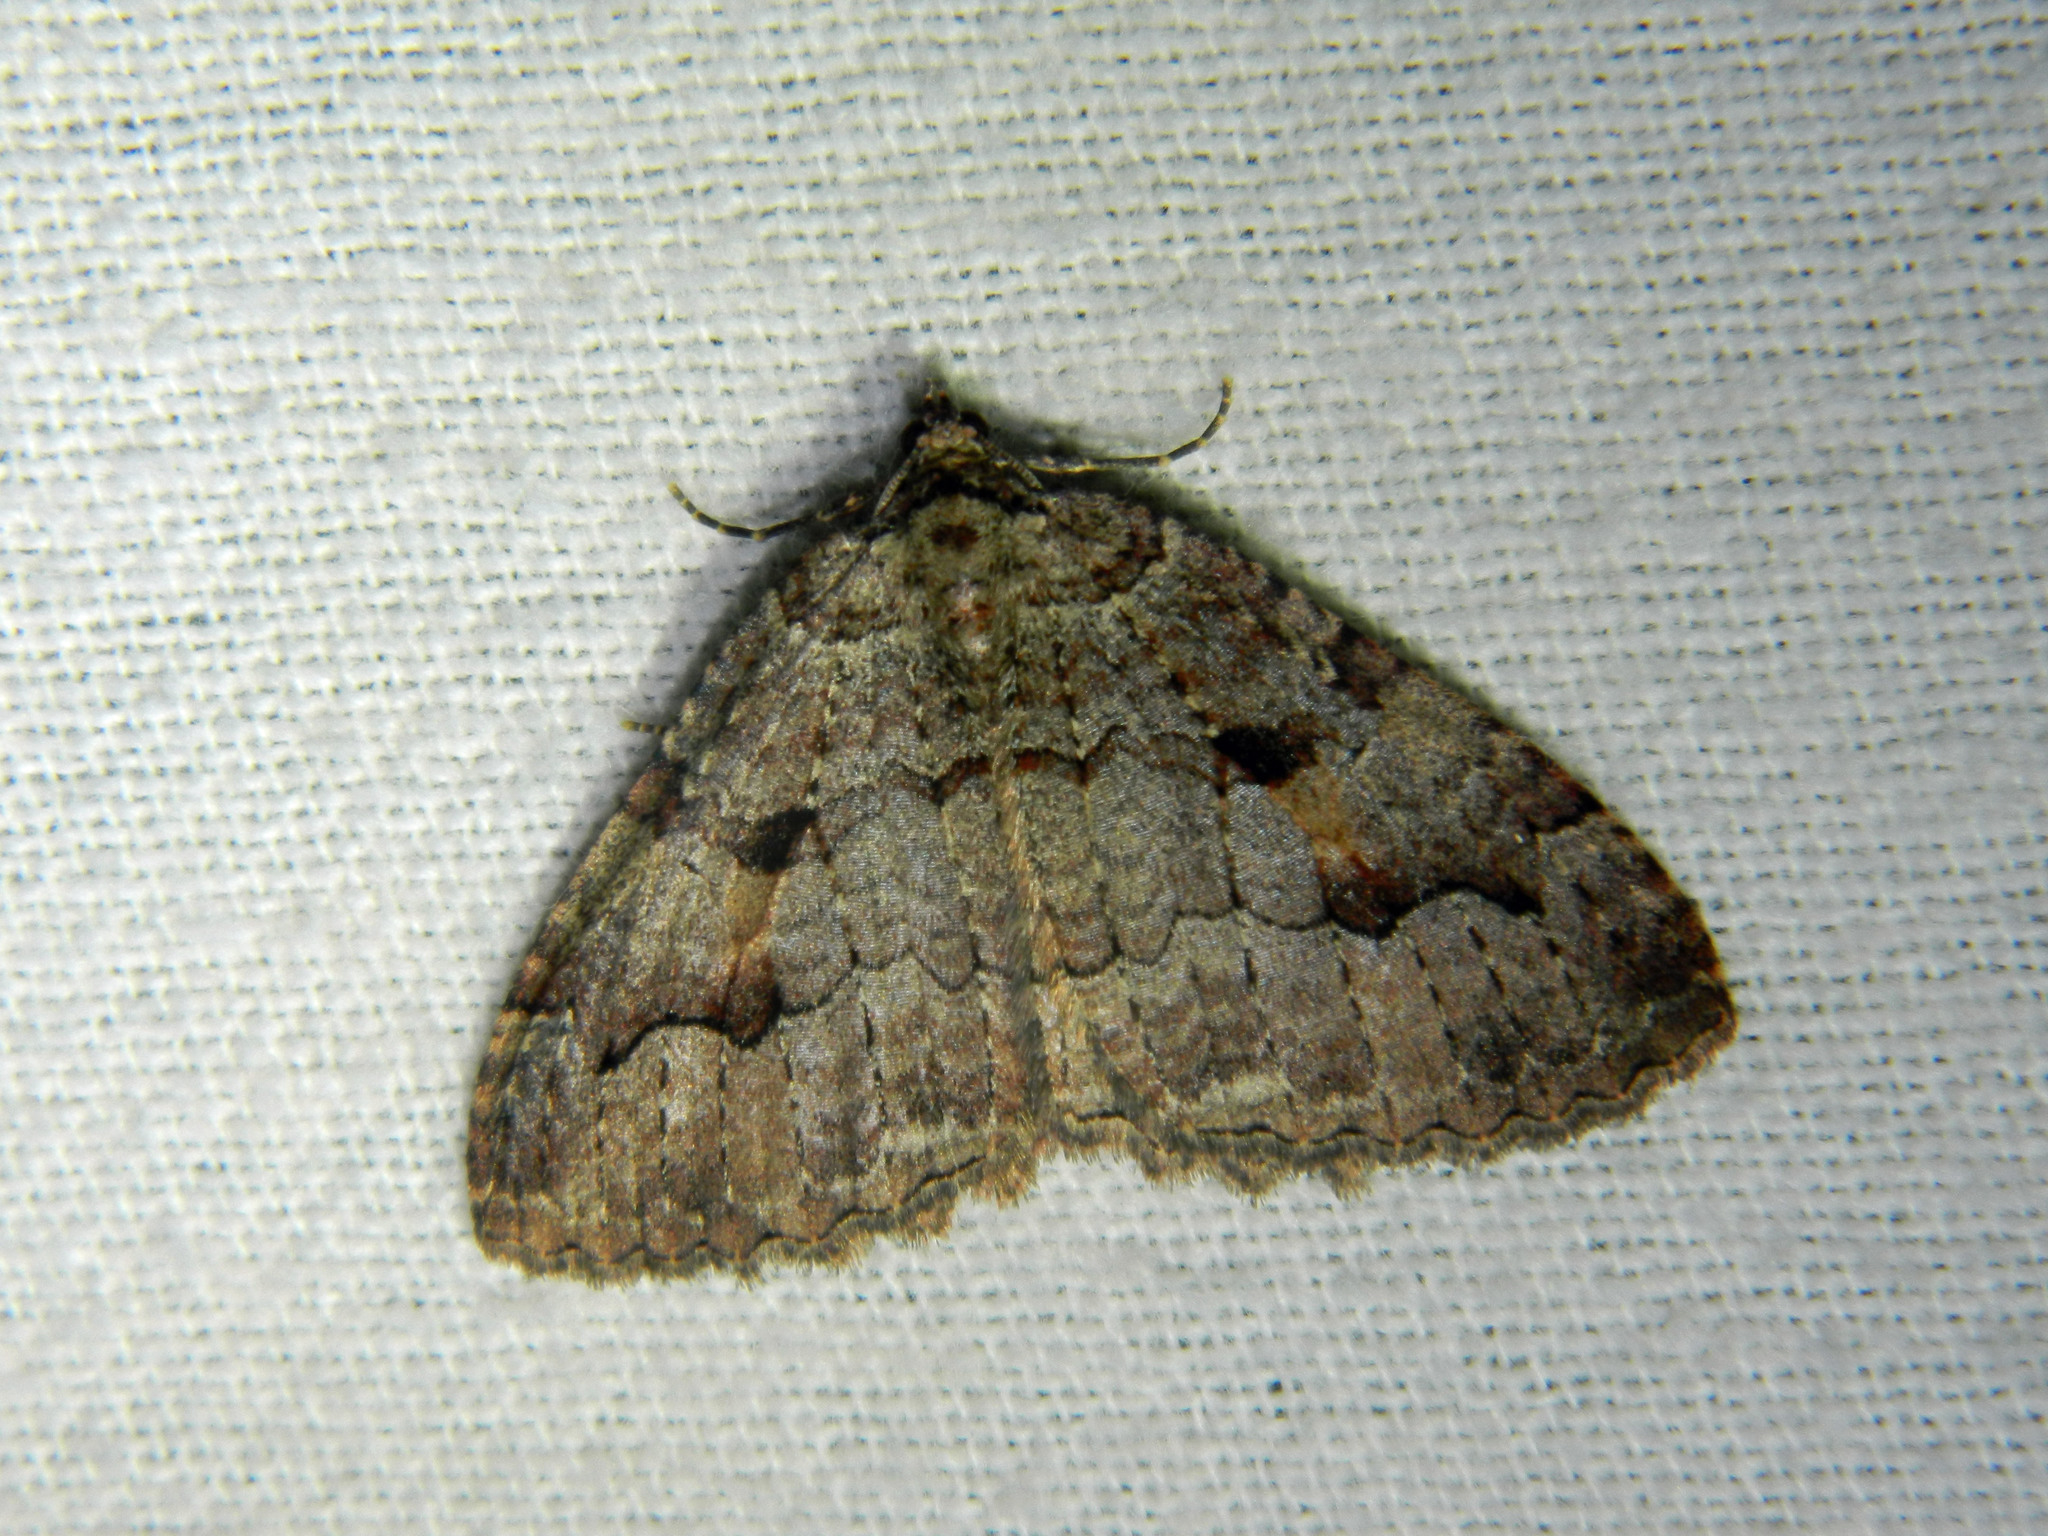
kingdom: Animalia
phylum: Arthropoda
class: Insecta
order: Lepidoptera
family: Geometridae
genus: Triphosa
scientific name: Triphosa haesitata
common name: Tissue moth
